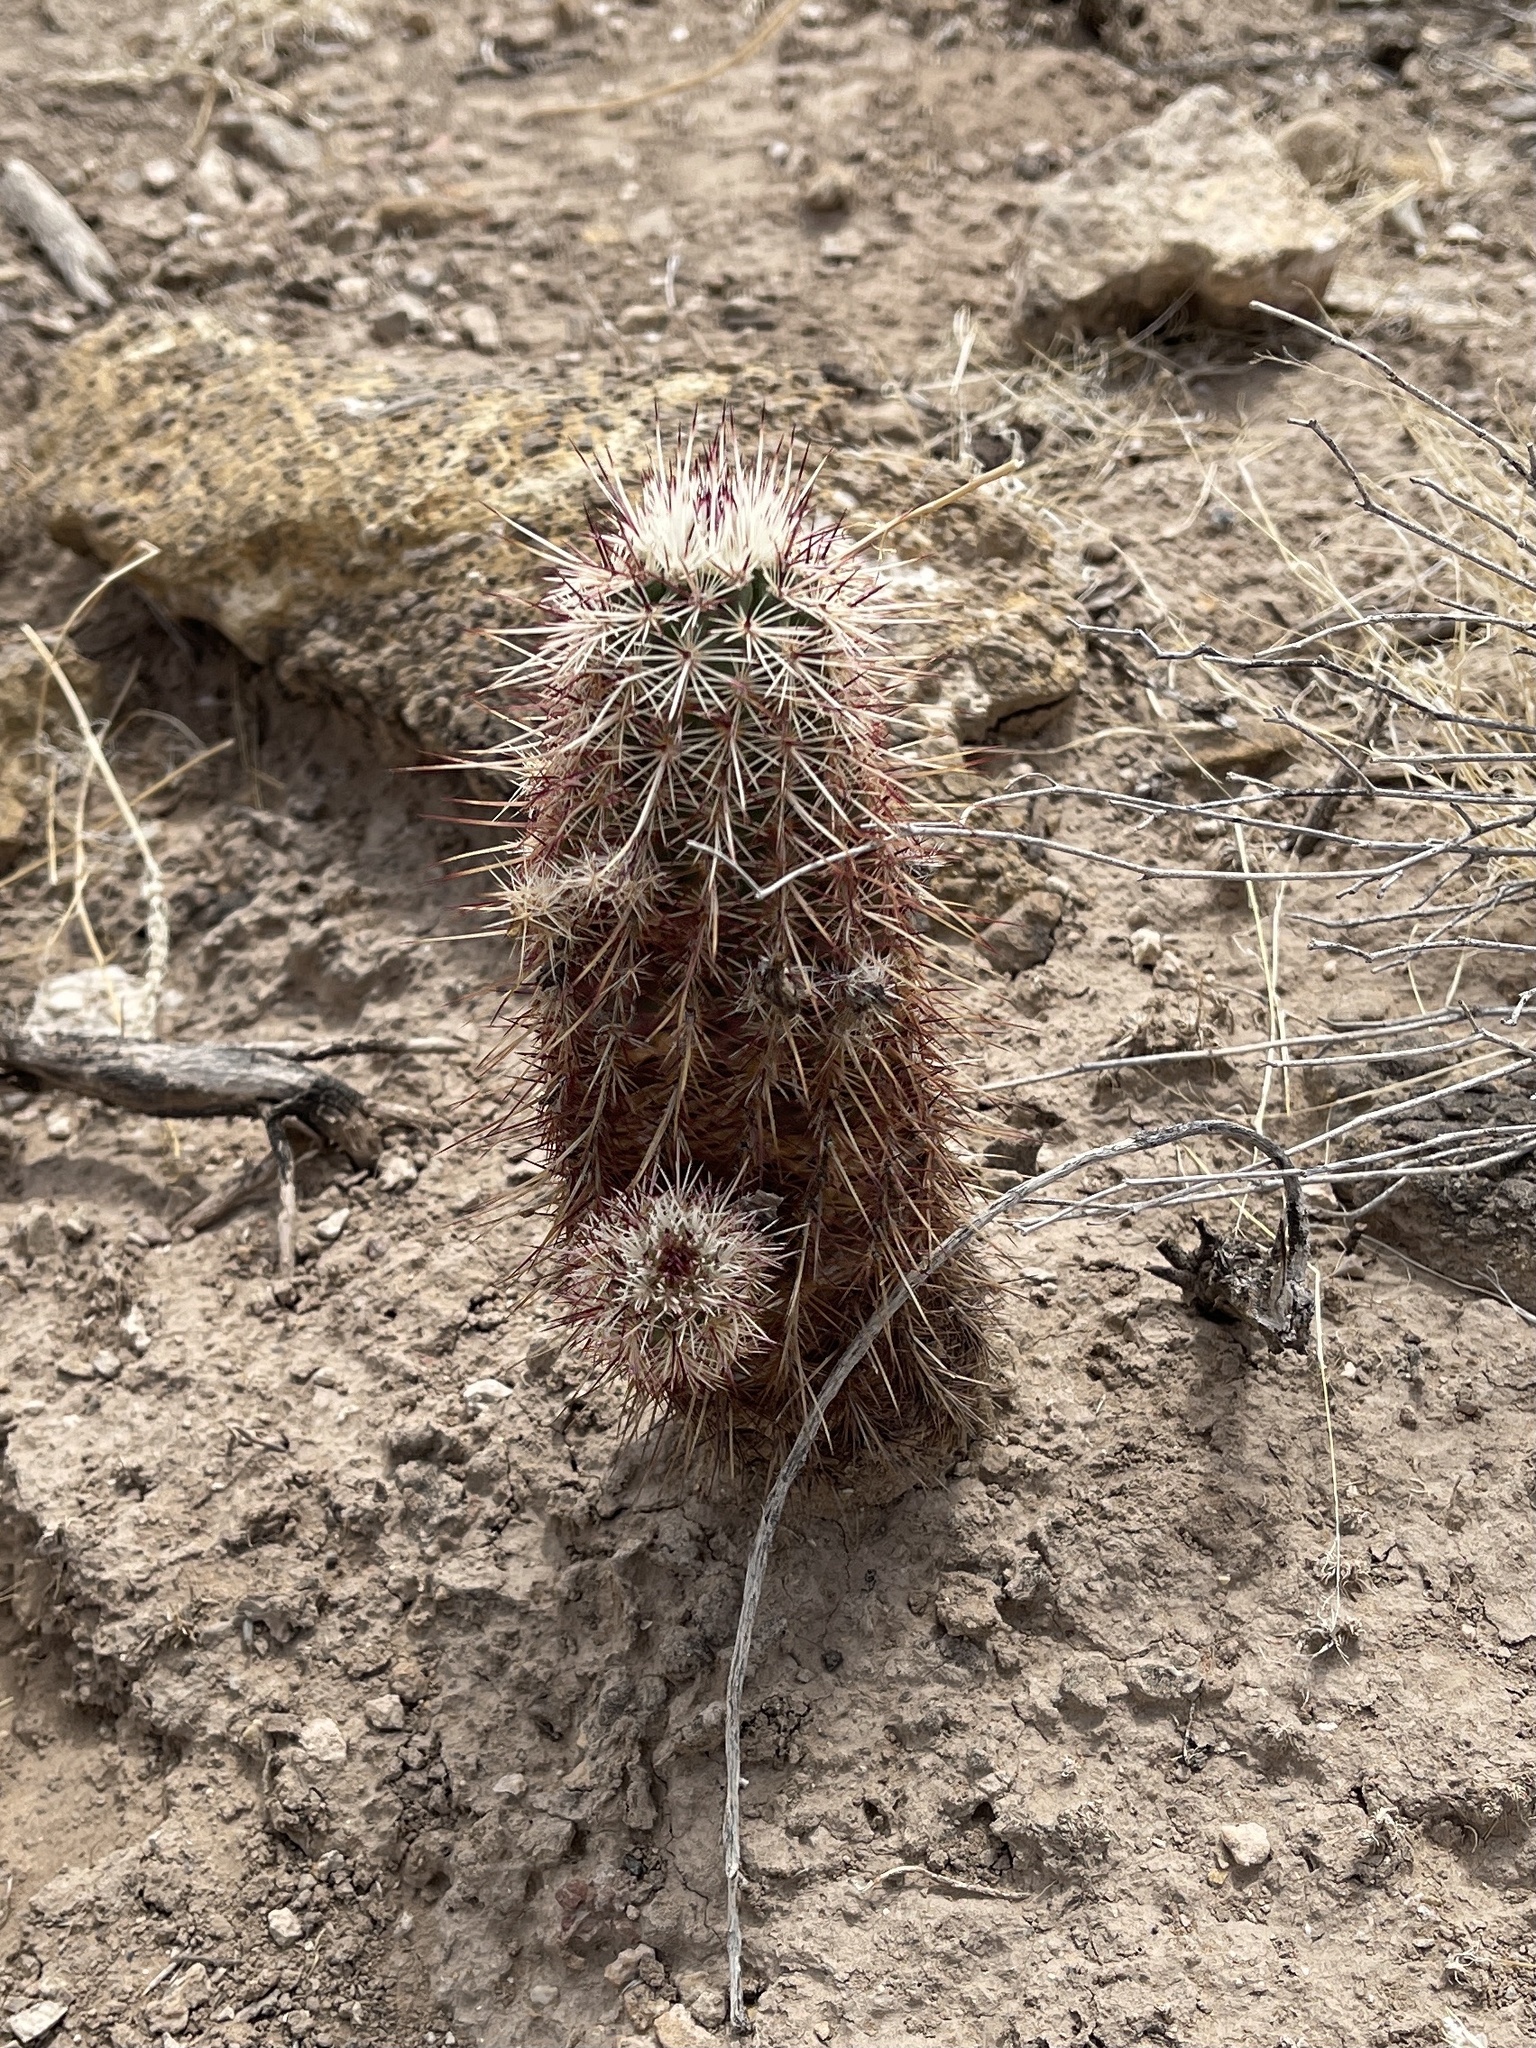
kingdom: Plantae
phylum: Tracheophyta
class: Magnoliopsida
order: Caryophyllales
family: Cactaceae
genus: Echinocereus
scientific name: Echinocereus viridiflorus
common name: Nylon hedgehog cactus
